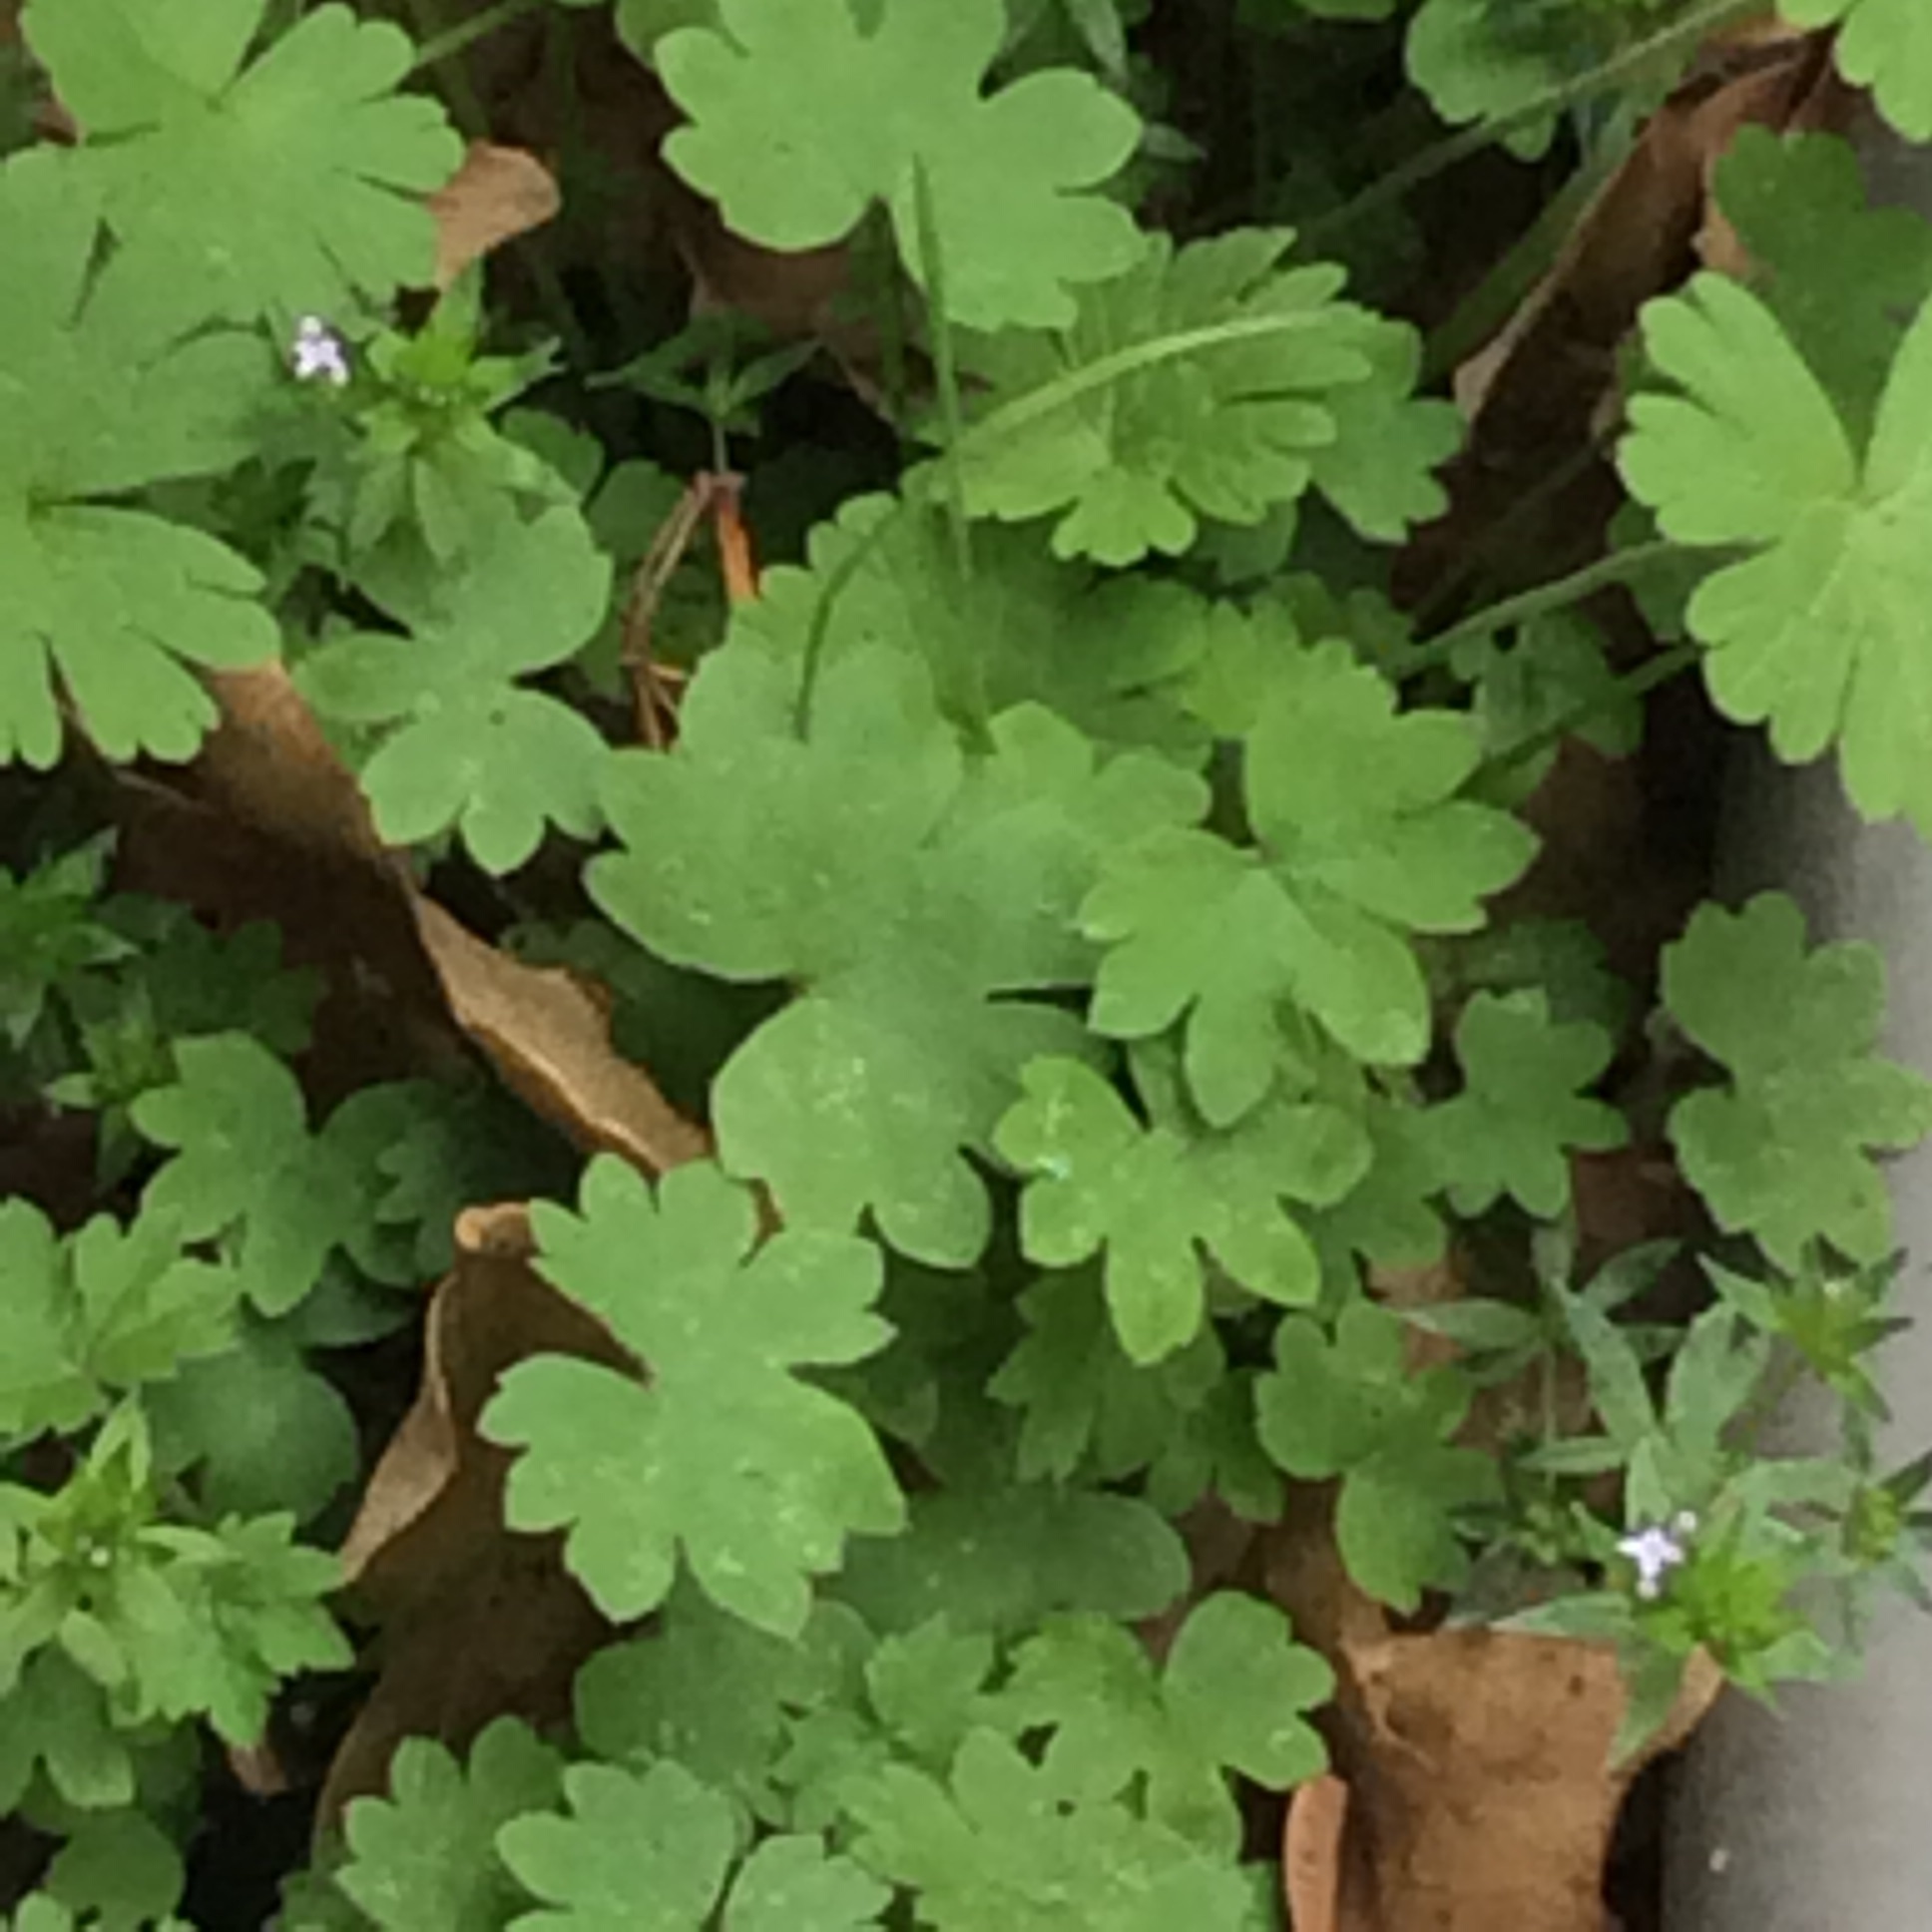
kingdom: Plantae
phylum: Tracheophyta
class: Magnoliopsida
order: Apiales
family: Apiaceae
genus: Bowlesia
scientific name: Bowlesia incana
